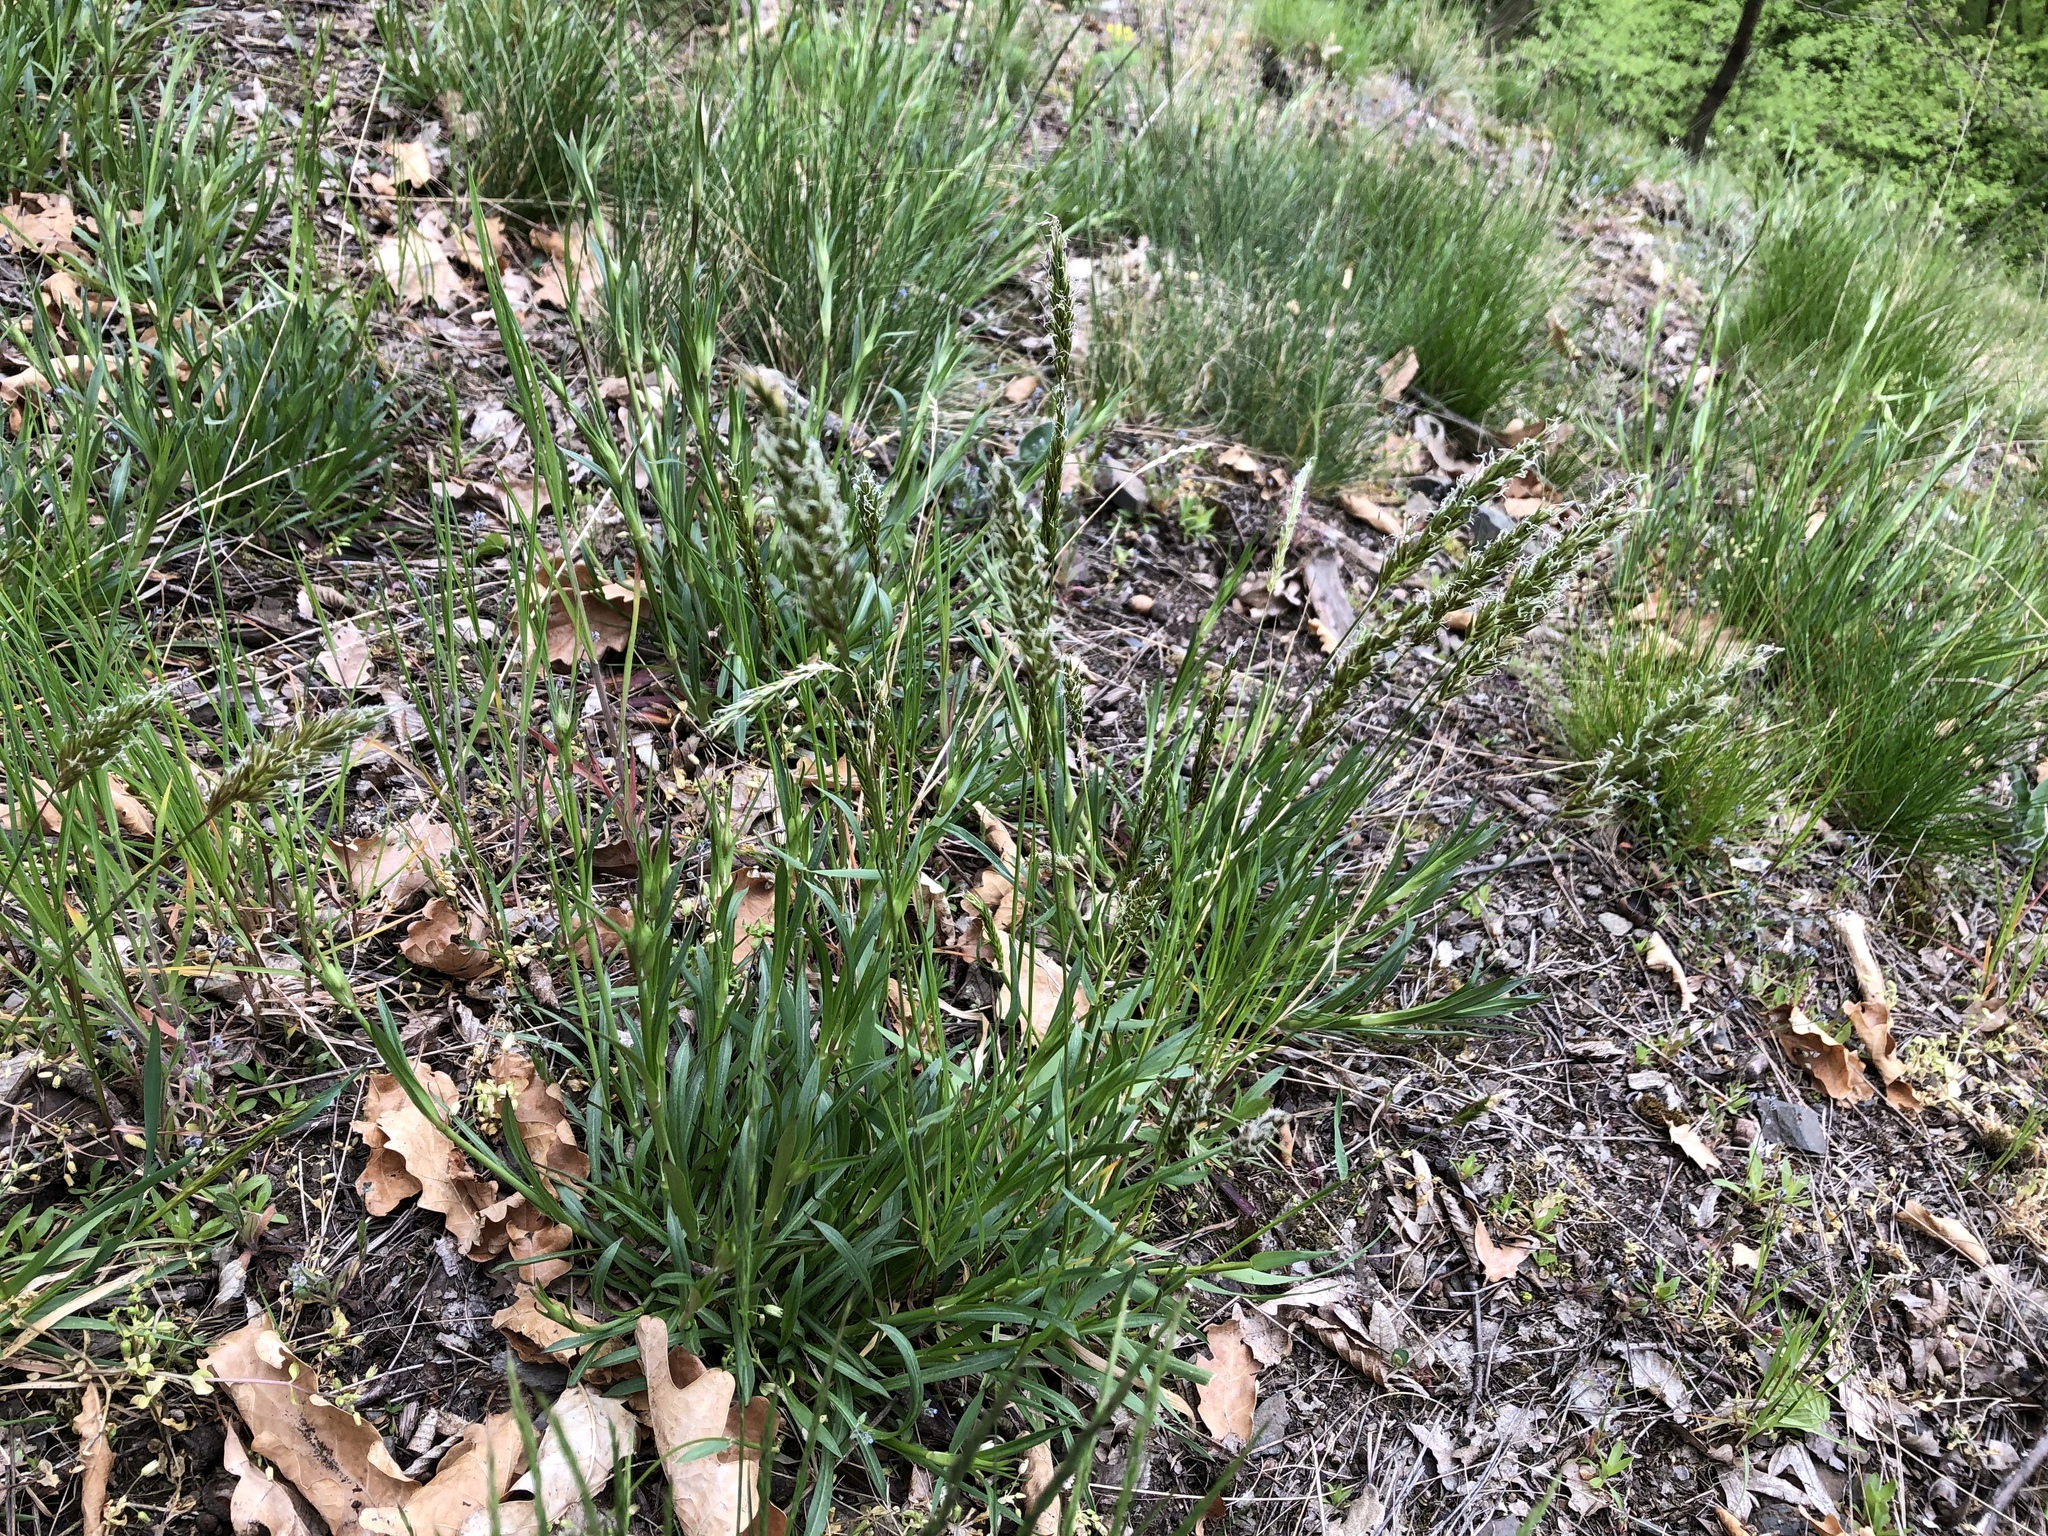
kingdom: Plantae
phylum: Tracheophyta
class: Liliopsida
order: Poales
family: Poaceae
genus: Anthoxanthum
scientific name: Anthoxanthum odoratum
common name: Sweet vernalgrass
